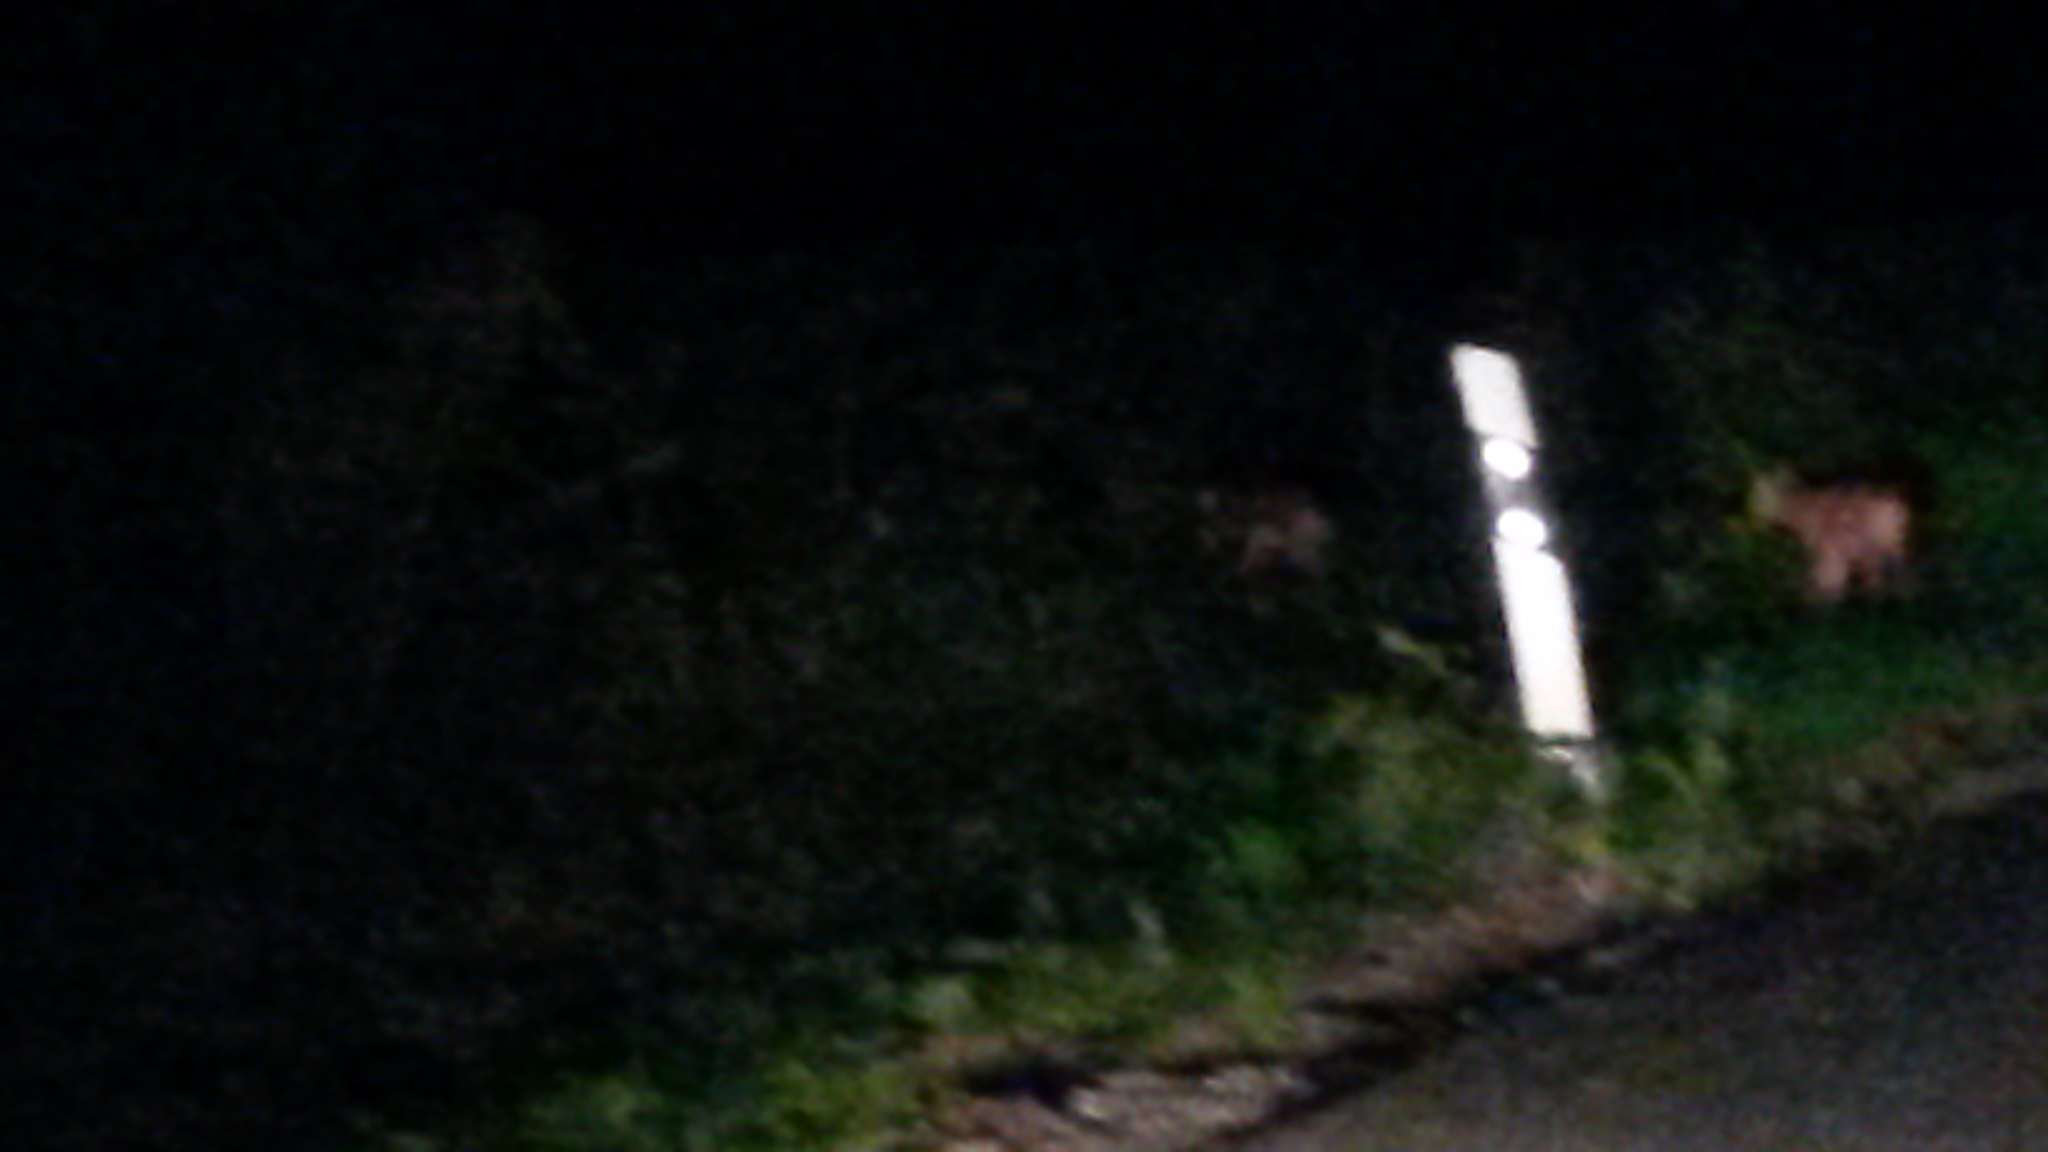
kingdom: Animalia
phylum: Chordata
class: Mammalia
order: Artiodactyla
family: Cervidae
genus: Capreolus
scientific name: Capreolus capreolus
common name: Western roe deer
